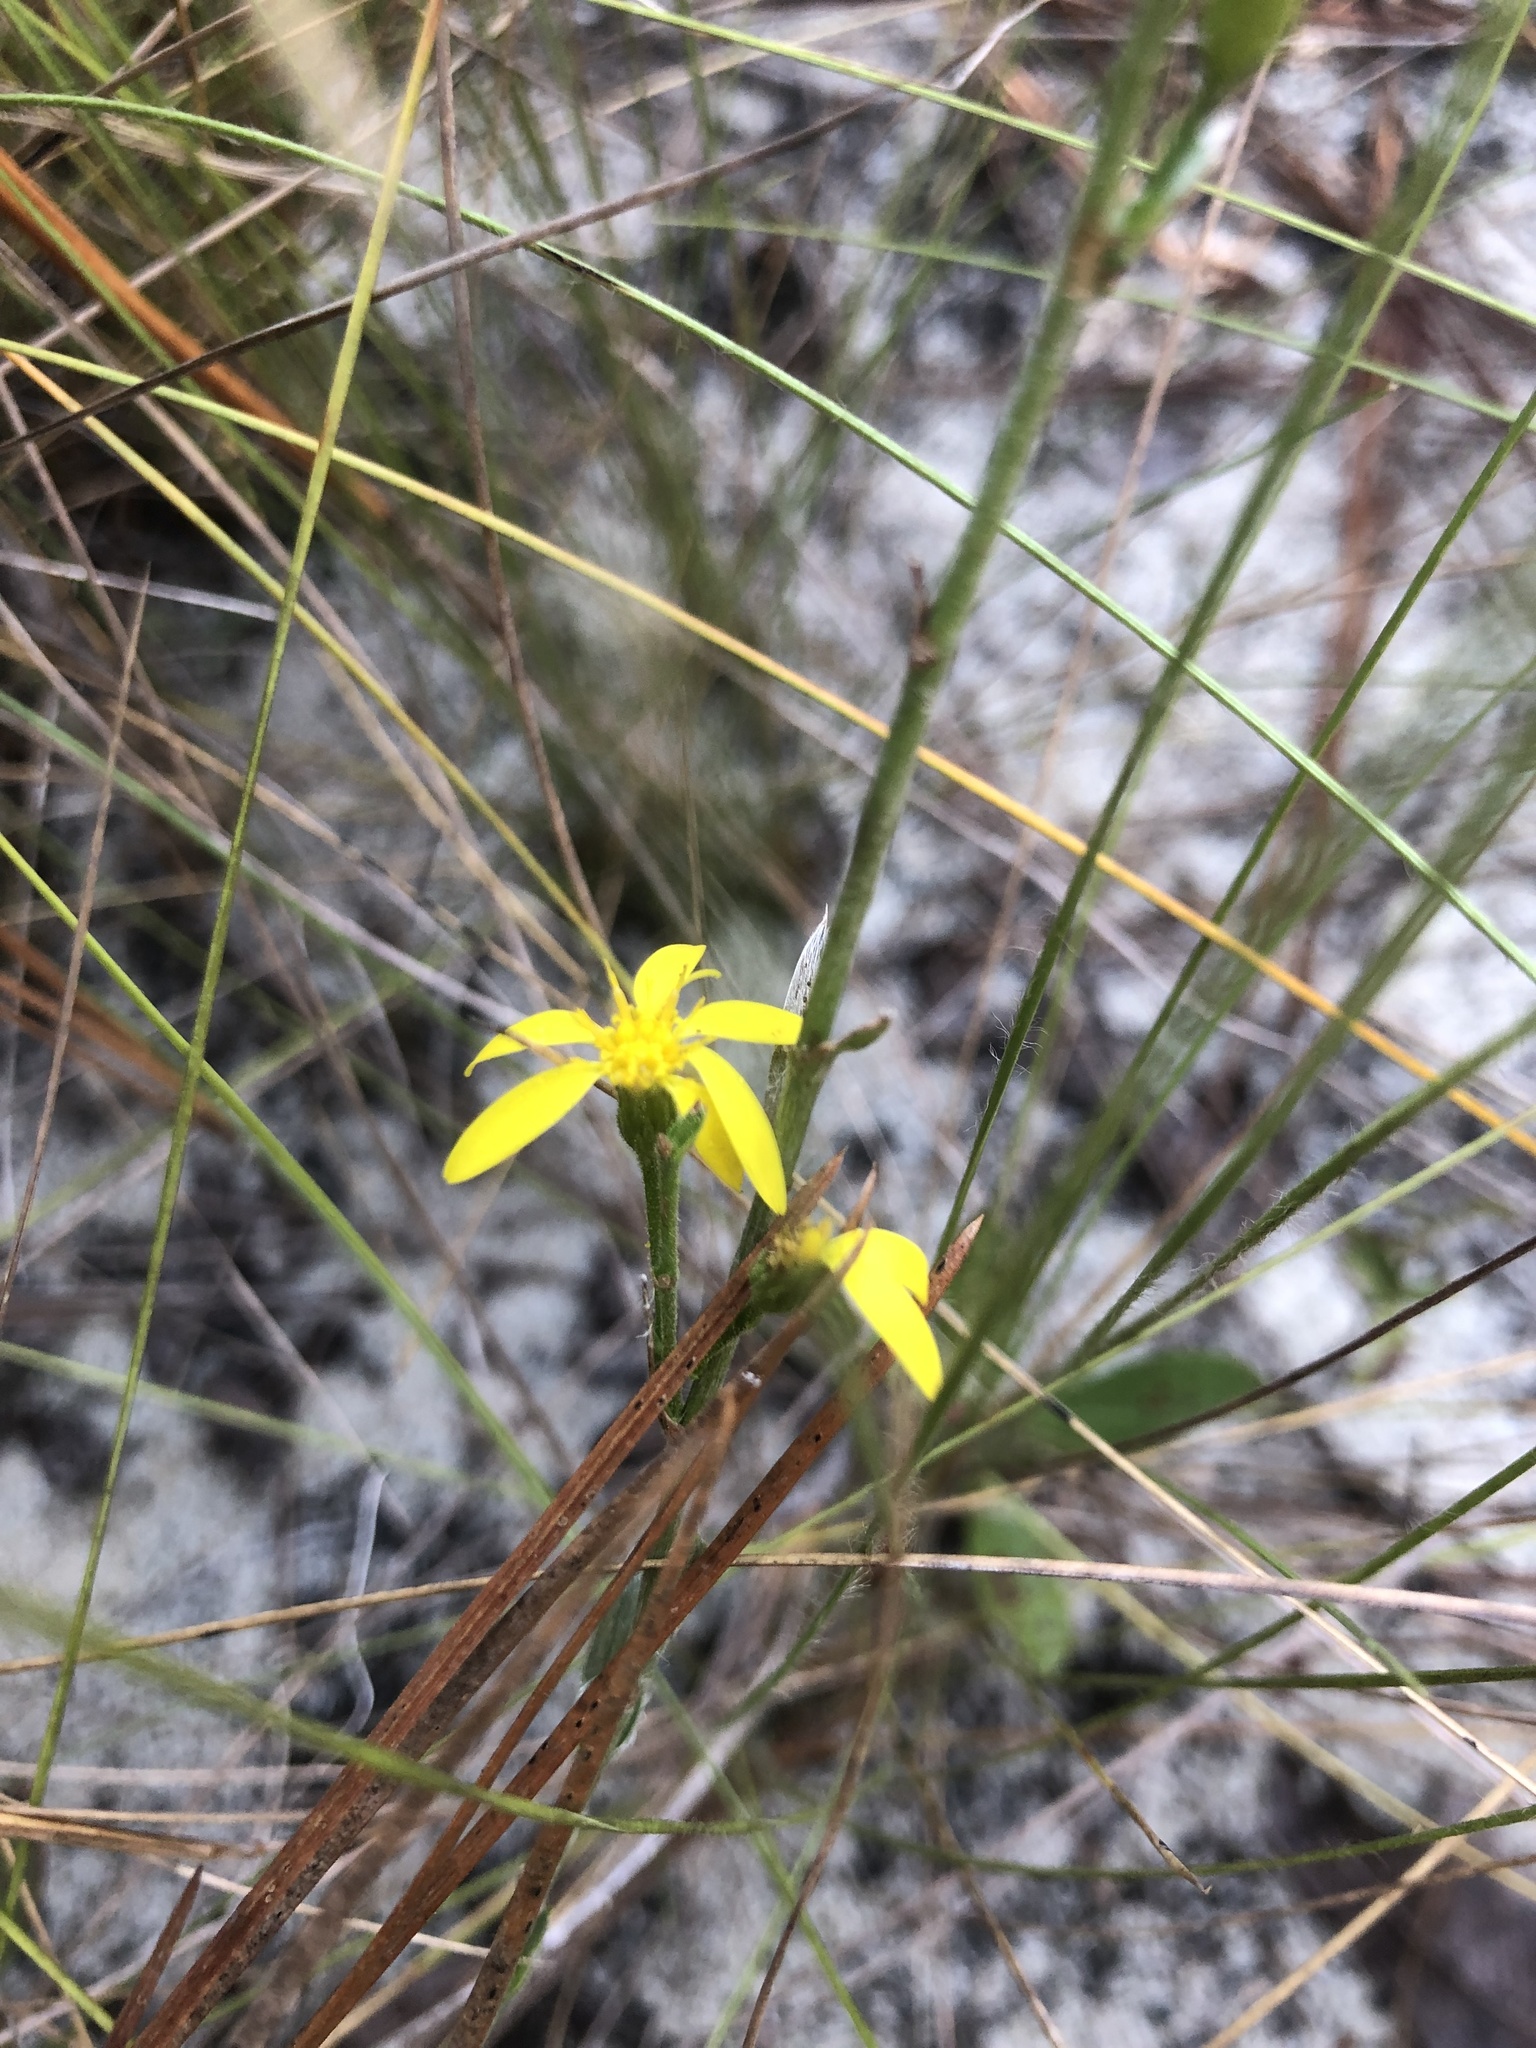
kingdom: Plantae
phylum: Tracheophyta
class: Magnoliopsida
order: Asterales
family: Asteraceae
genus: Pityopsis
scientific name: Pityopsis aspera
